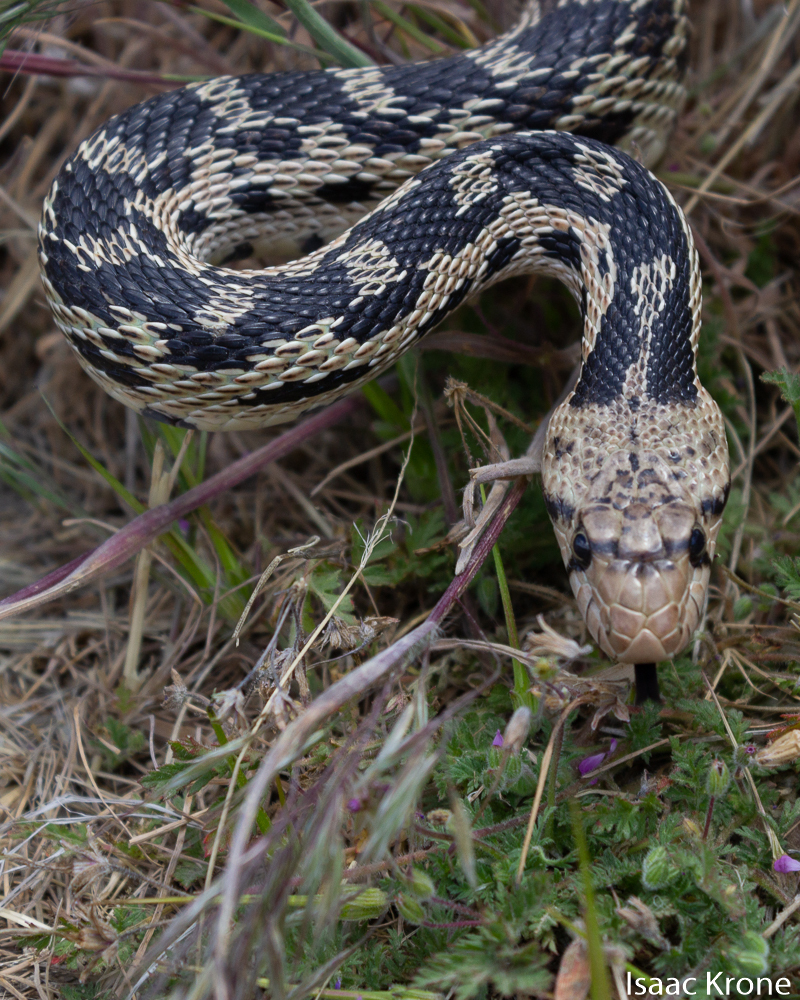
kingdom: Animalia
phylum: Chordata
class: Squamata
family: Colubridae
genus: Pituophis
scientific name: Pituophis catenifer
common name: Gopher snake
